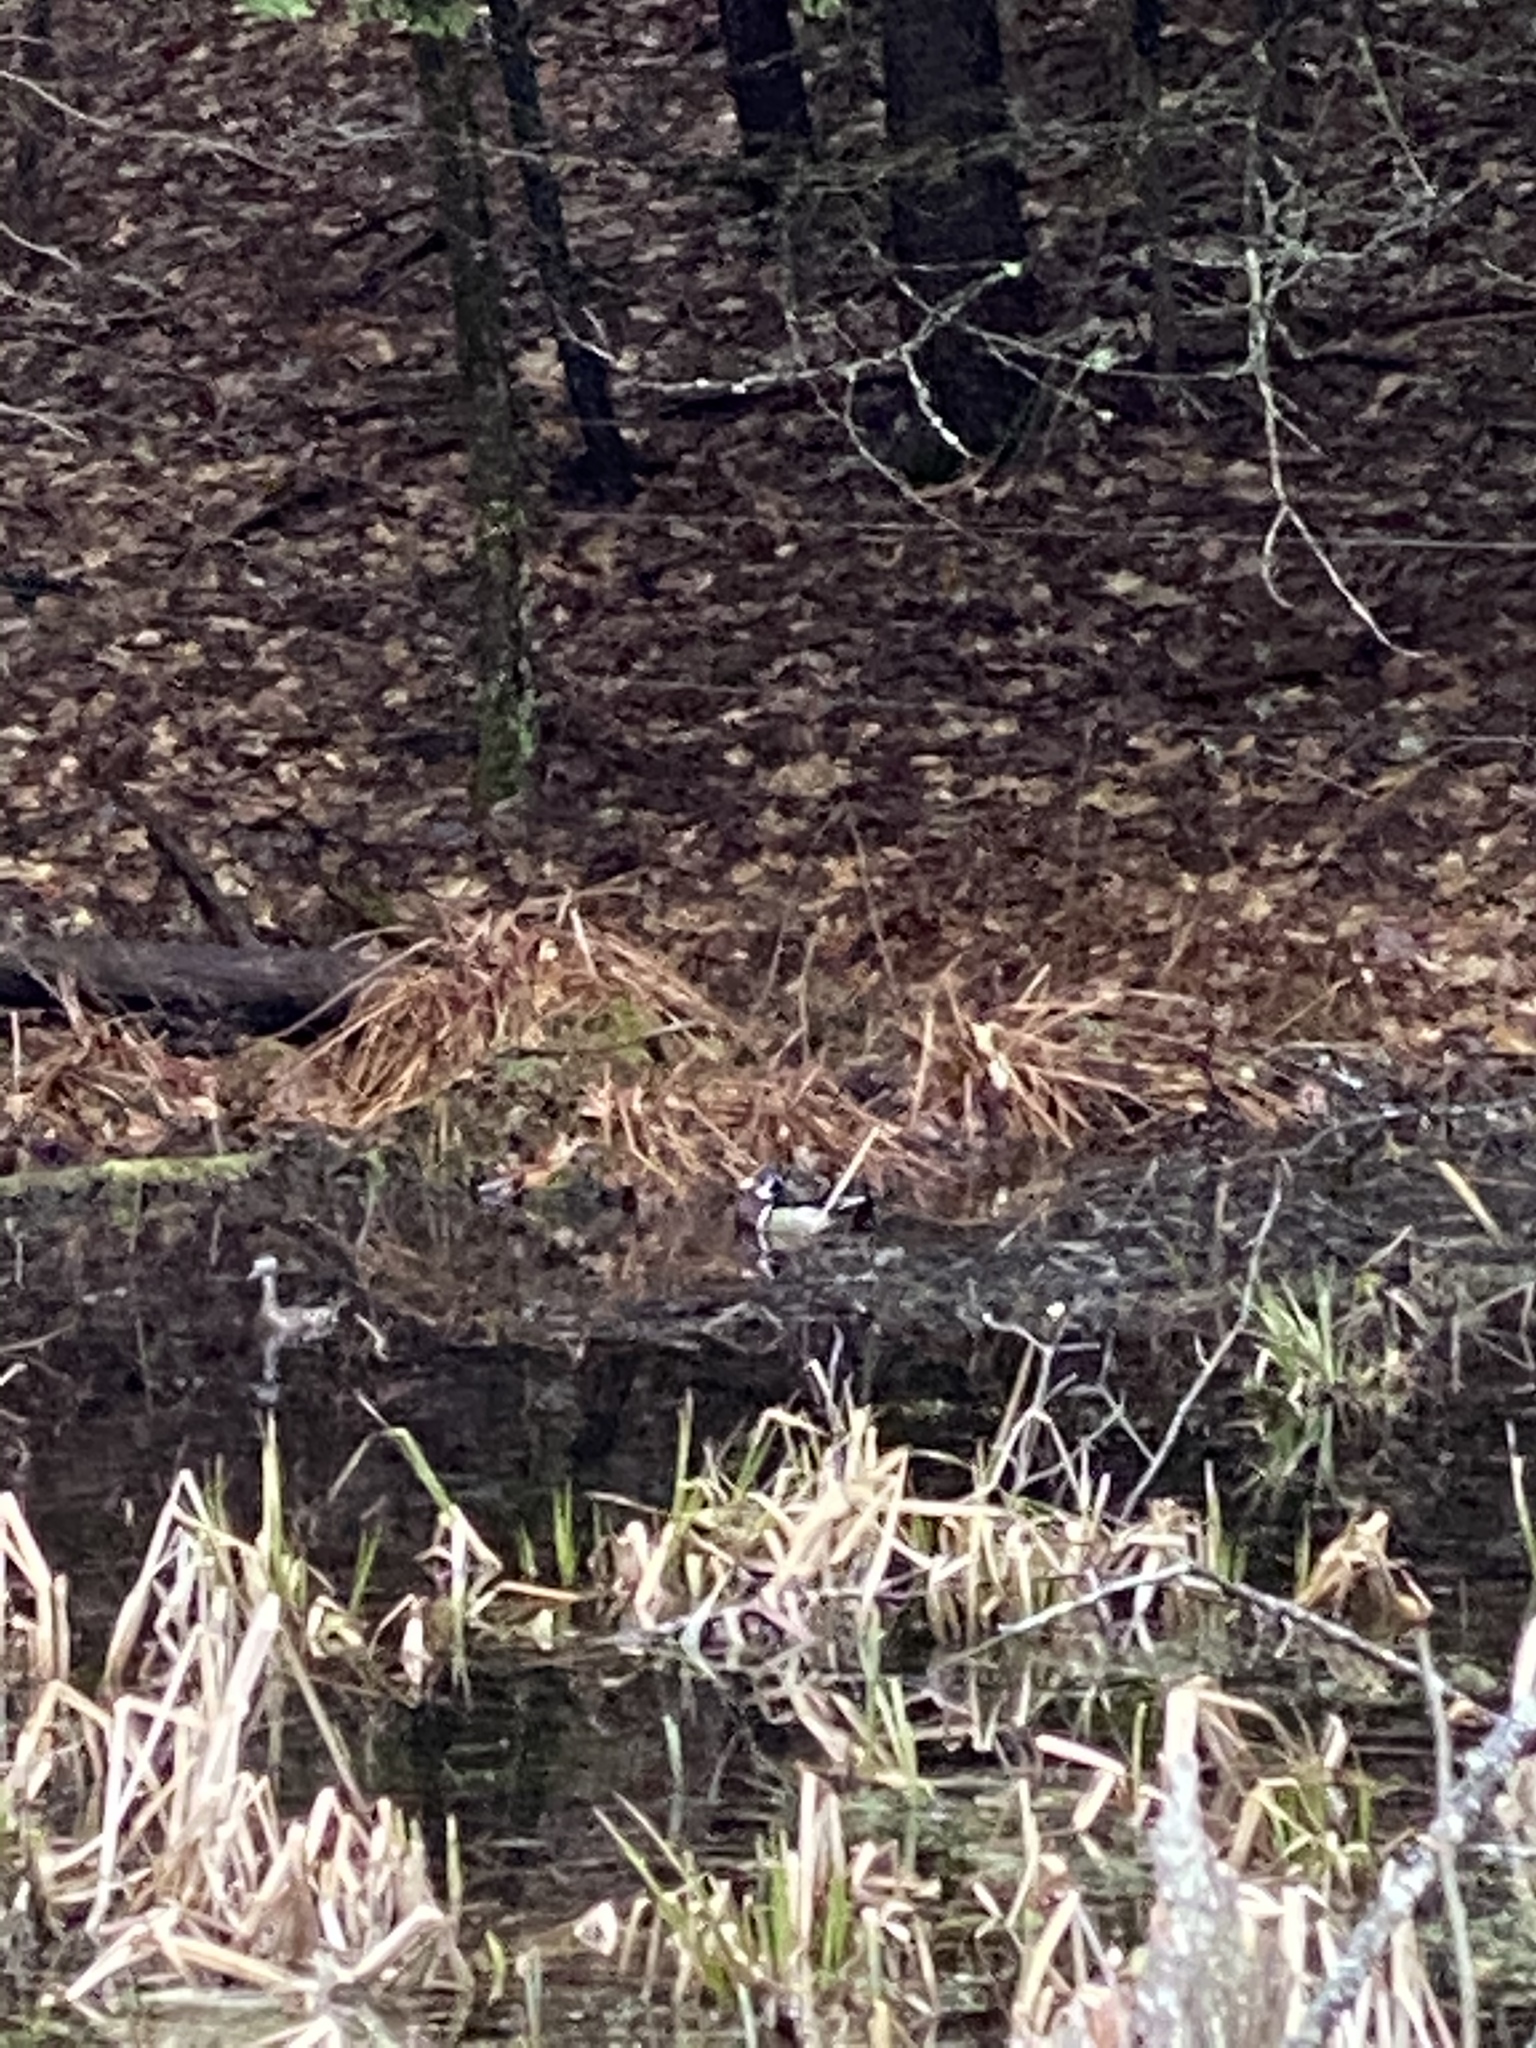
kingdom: Animalia
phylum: Chordata
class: Aves
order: Anseriformes
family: Anatidae
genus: Aix
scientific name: Aix sponsa
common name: Wood duck
